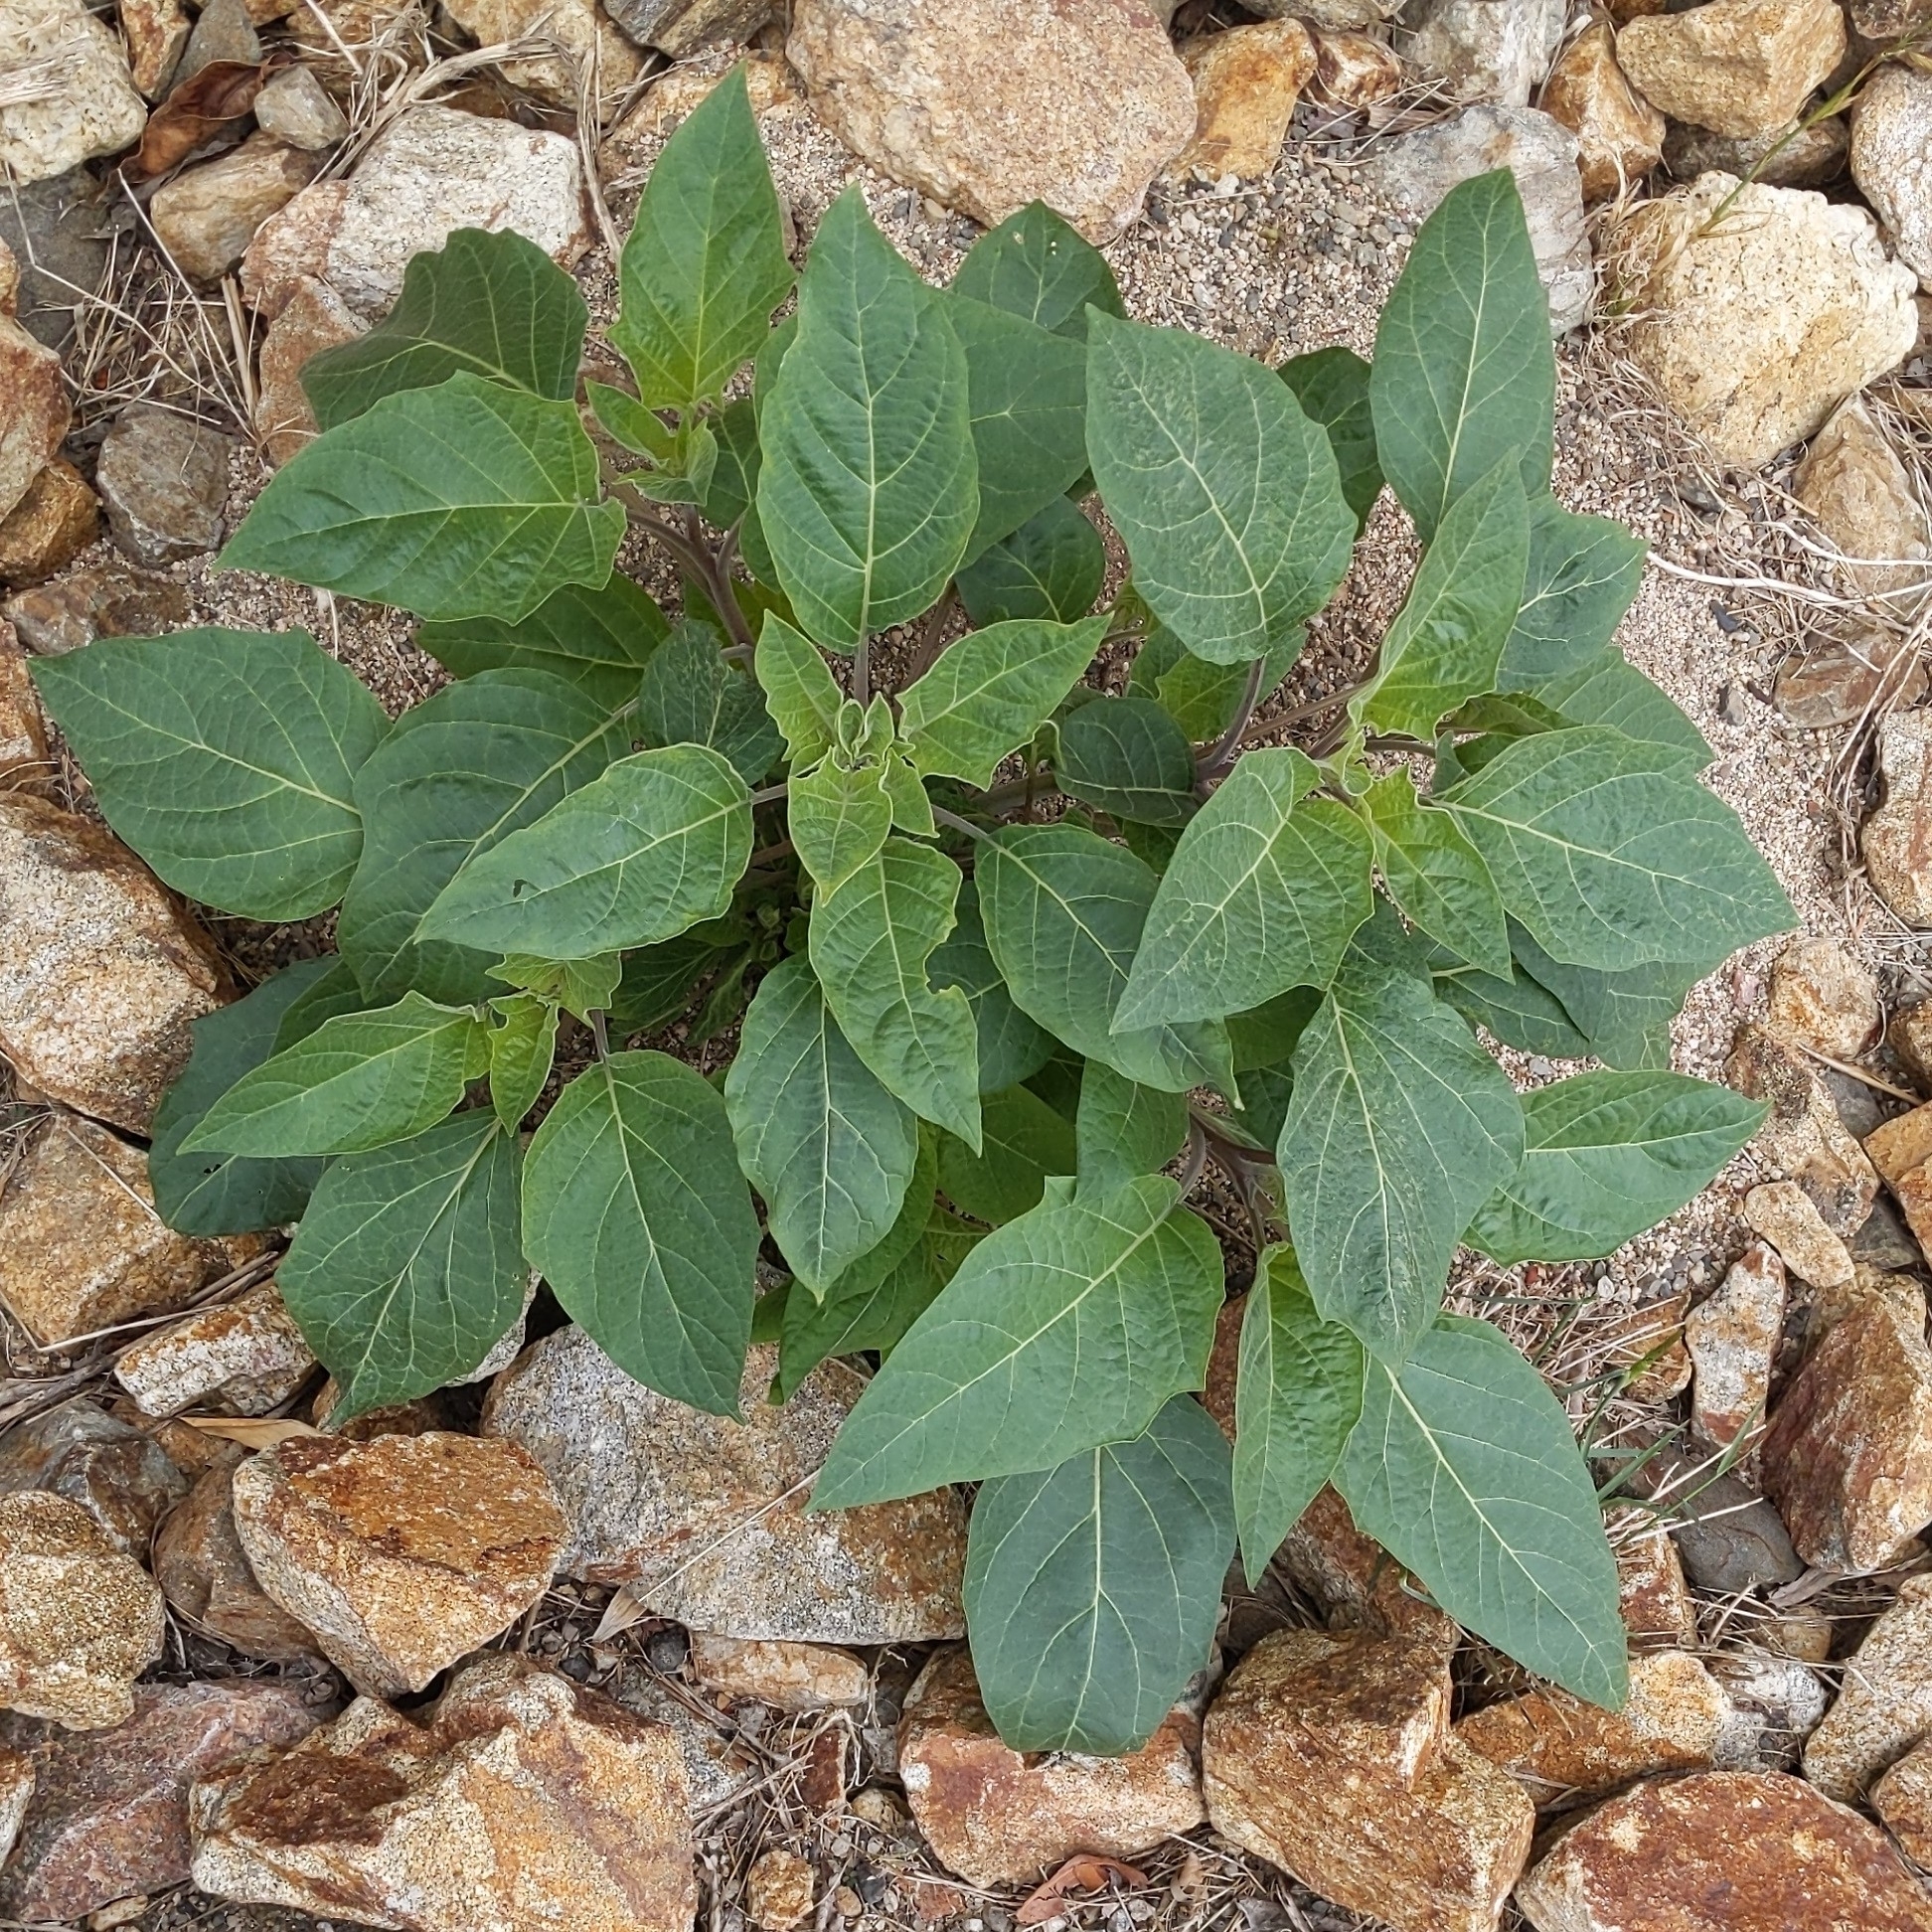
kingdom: Plantae
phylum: Tracheophyta
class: Magnoliopsida
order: Solanales
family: Solanaceae
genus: Datura
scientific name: Datura wrightii
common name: Sacred thorn-apple
